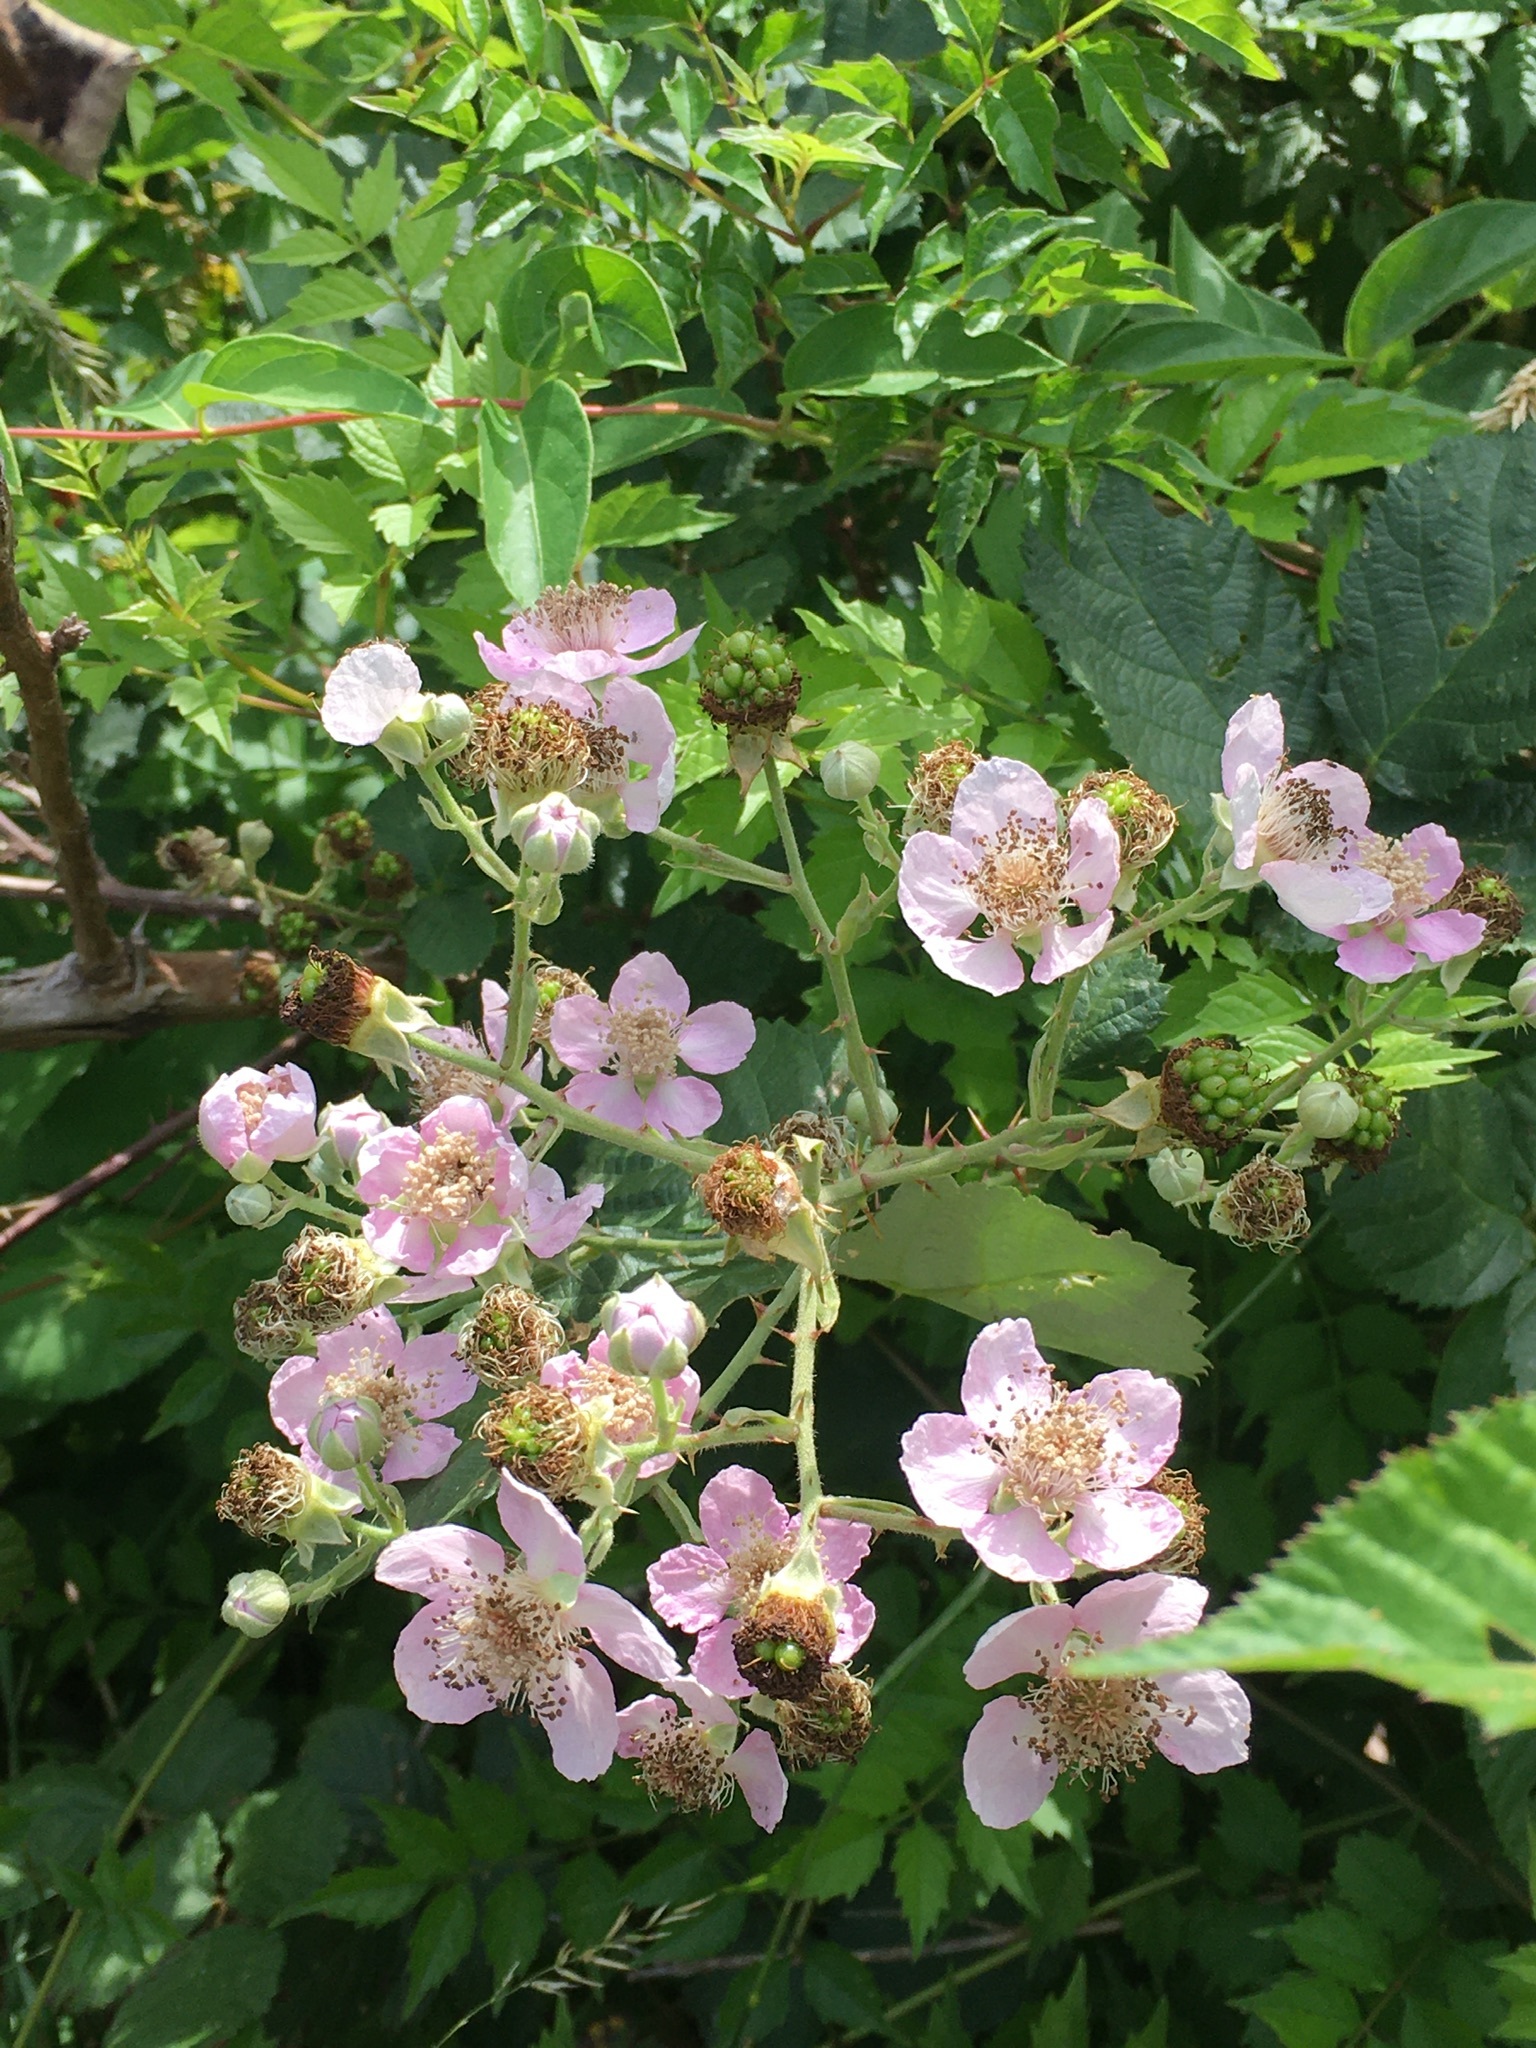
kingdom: Plantae
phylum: Tracheophyta
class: Magnoliopsida
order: Rosales
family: Rosaceae
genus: Rubus
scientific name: Rubus bifrons
